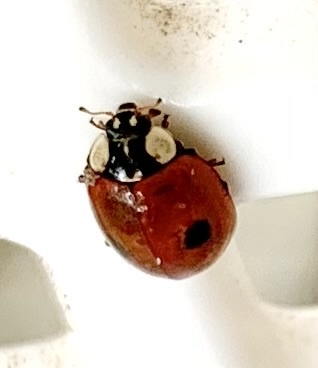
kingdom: Animalia
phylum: Arthropoda
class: Insecta
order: Coleoptera
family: Coccinellidae
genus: Adalia
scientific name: Adalia bipunctata
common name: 2-spot ladybird
